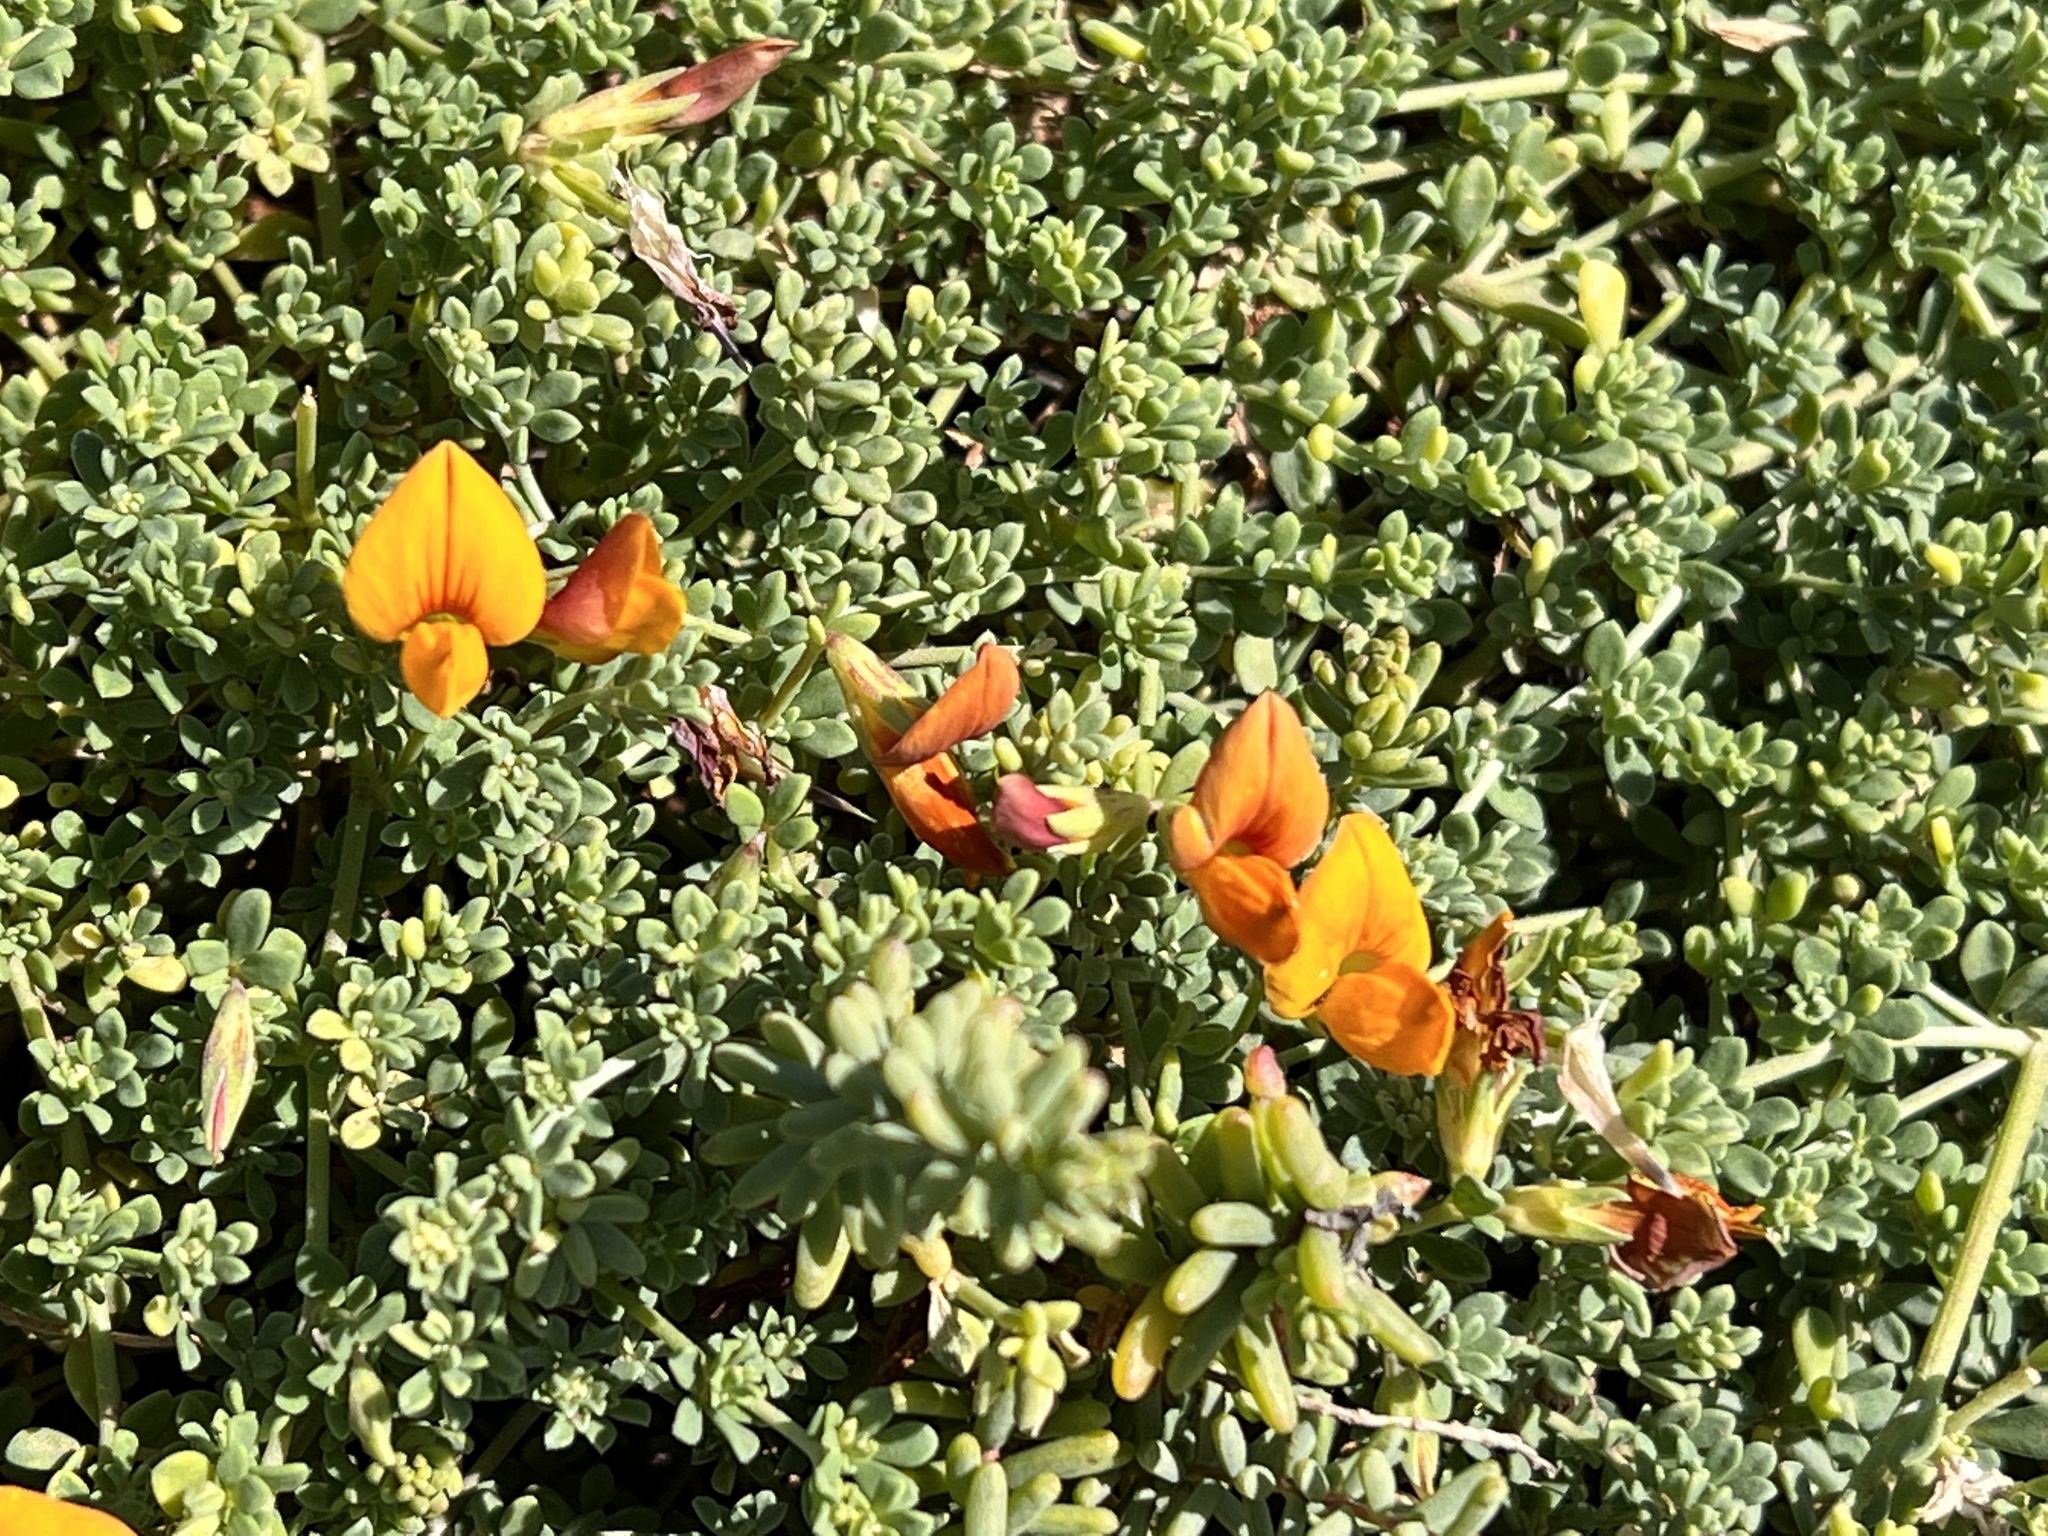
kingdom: Plantae
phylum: Tracheophyta
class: Magnoliopsida
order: Fabales
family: Fabaceae
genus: Lotus
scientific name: Lotus glaucus
